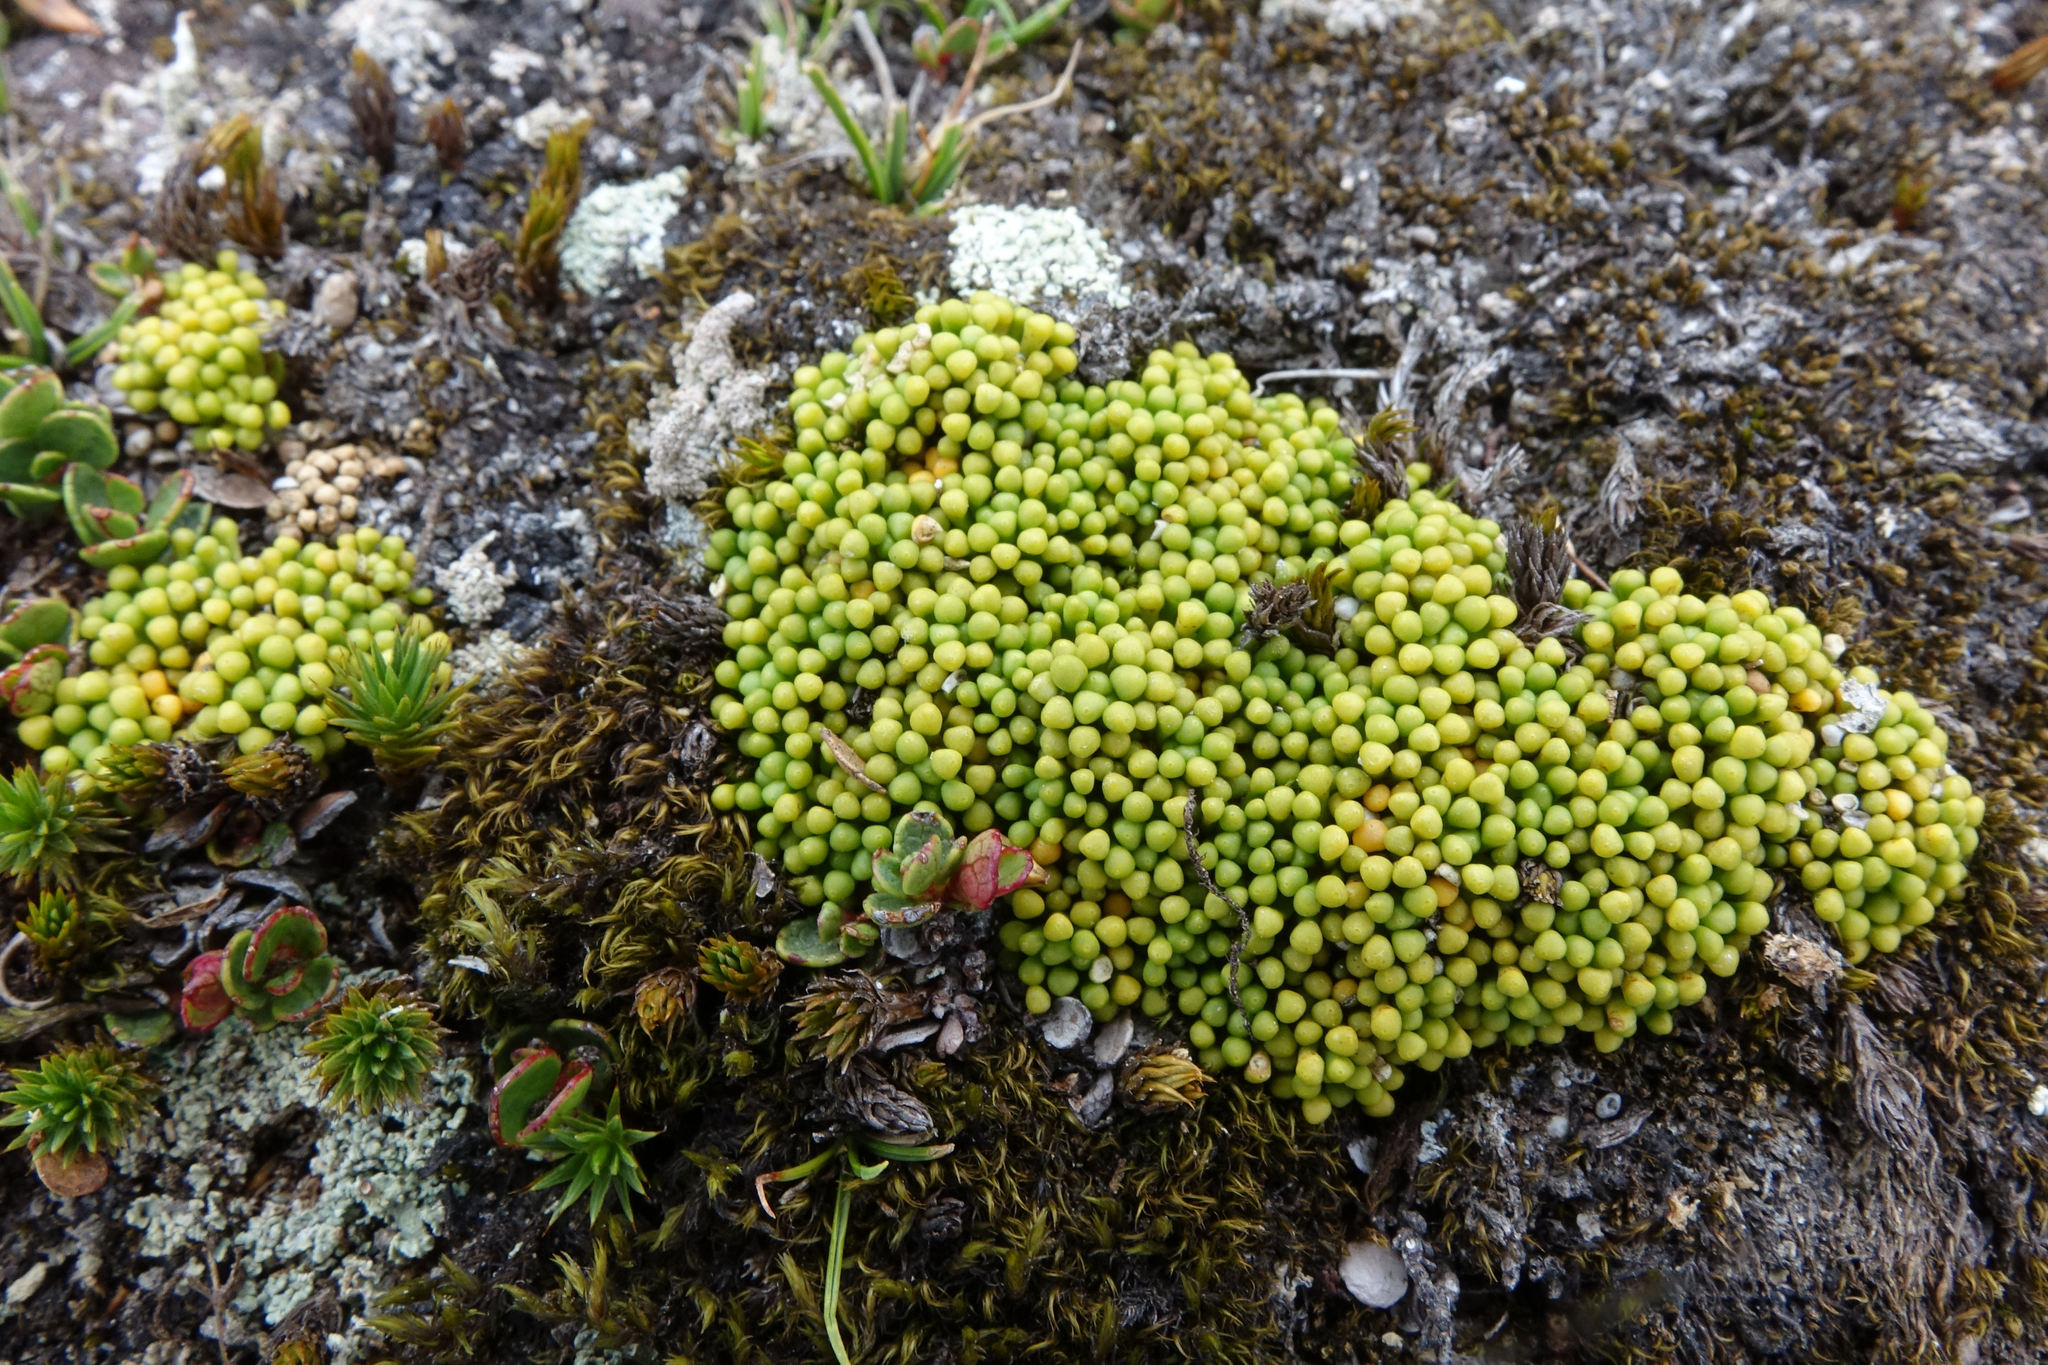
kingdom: Plantae
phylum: Tracheophyta
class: Magnoliopsida
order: Asterales
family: Stylidiaceae
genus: Phyllachne
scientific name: Phyllachne rubra
